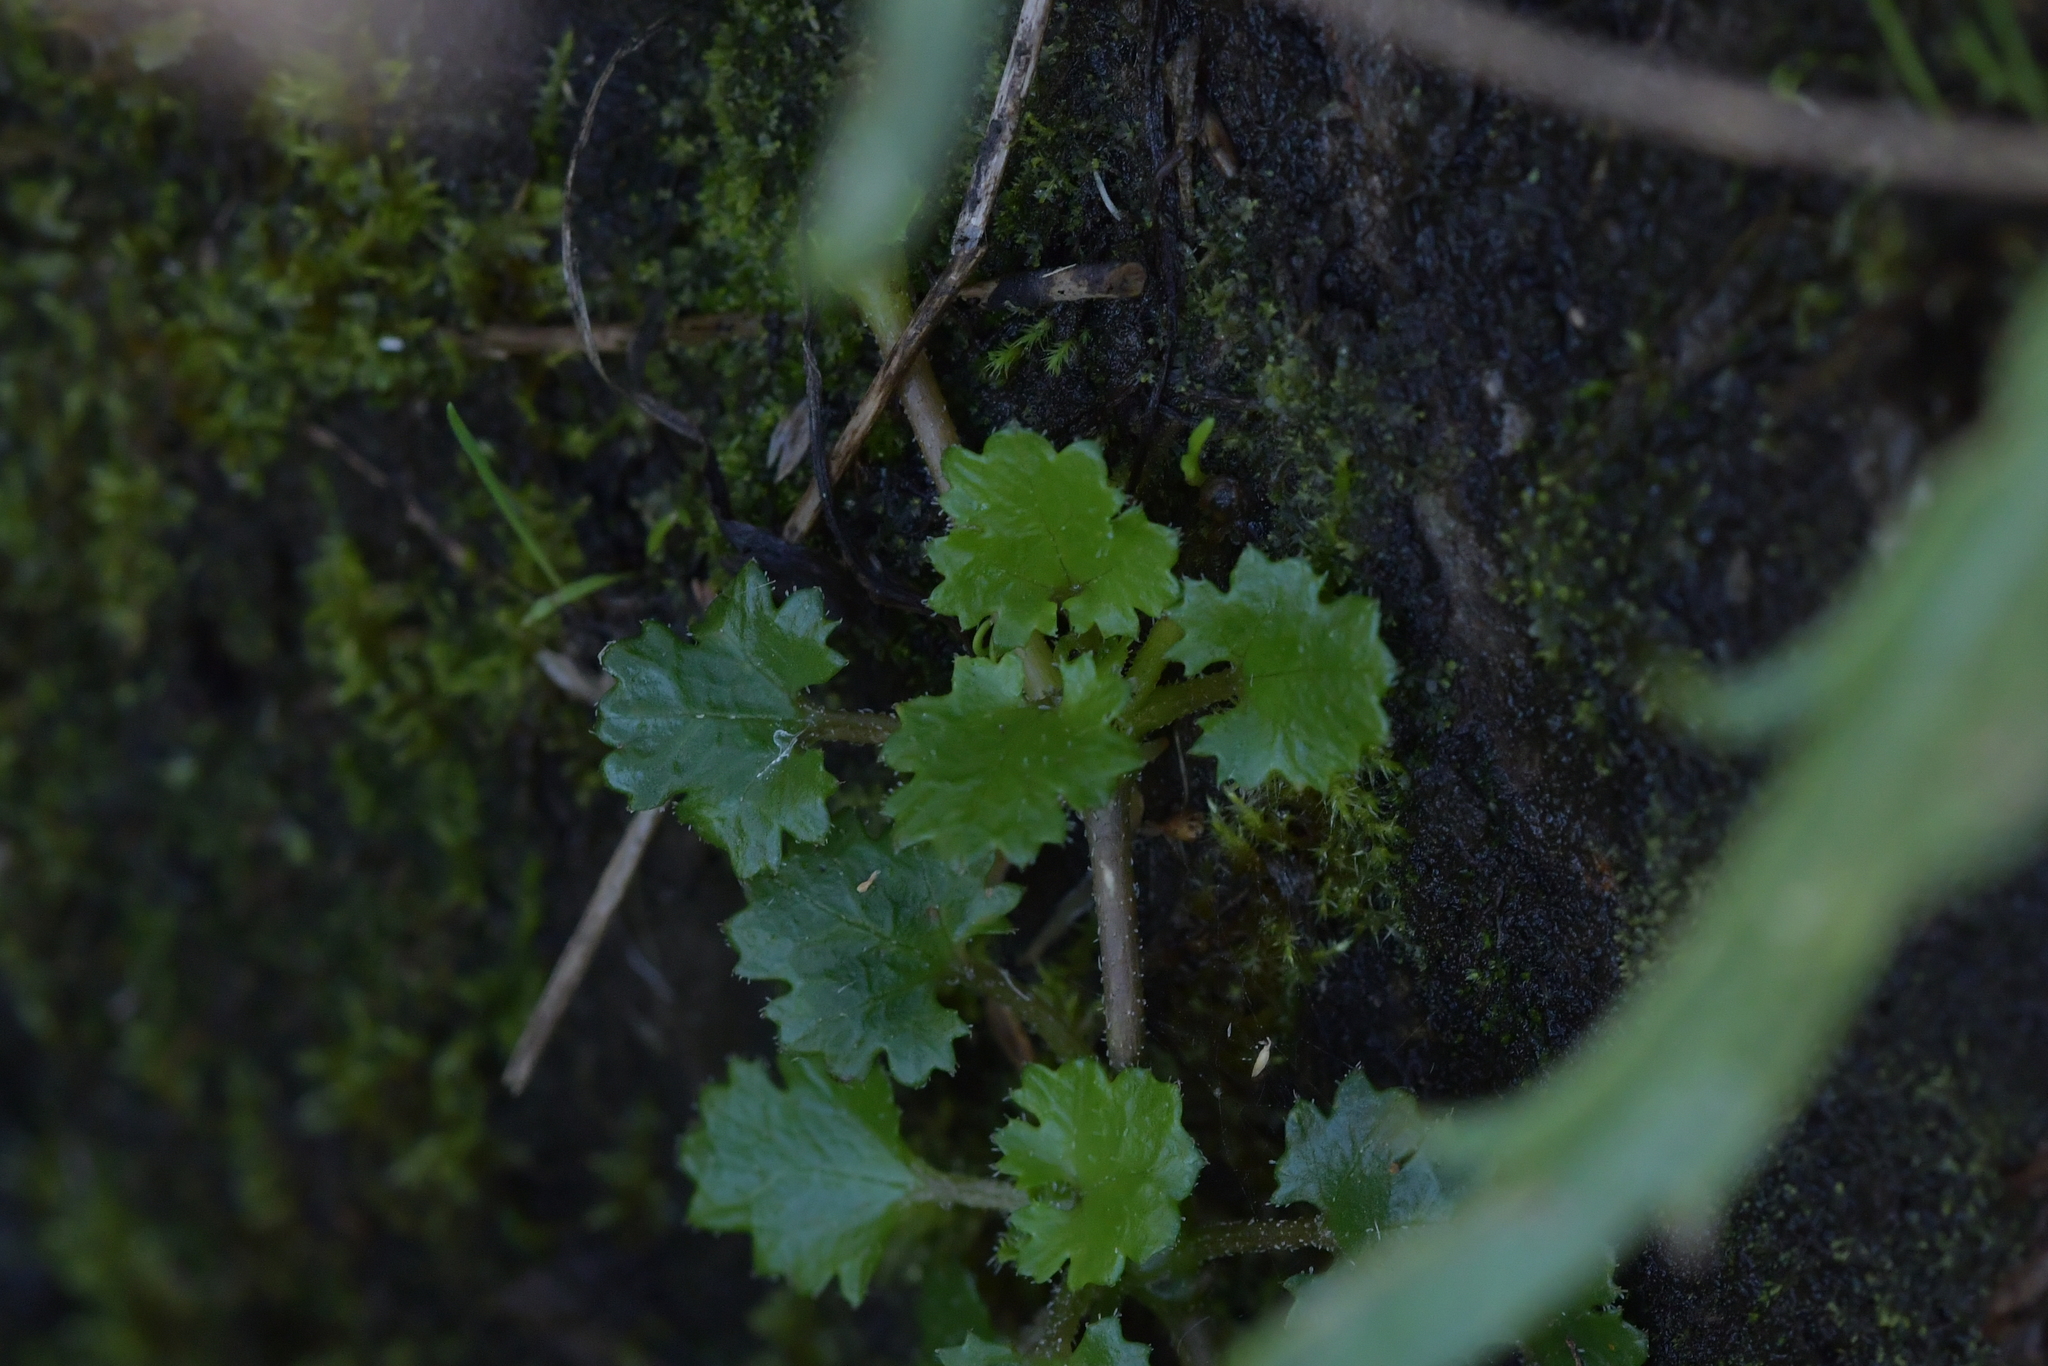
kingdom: Plantae
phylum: Tracheophyta
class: Magnoliopsida
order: Gunnerales
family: Gunneraceae
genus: Gunnera
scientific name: Gunnera monoica
